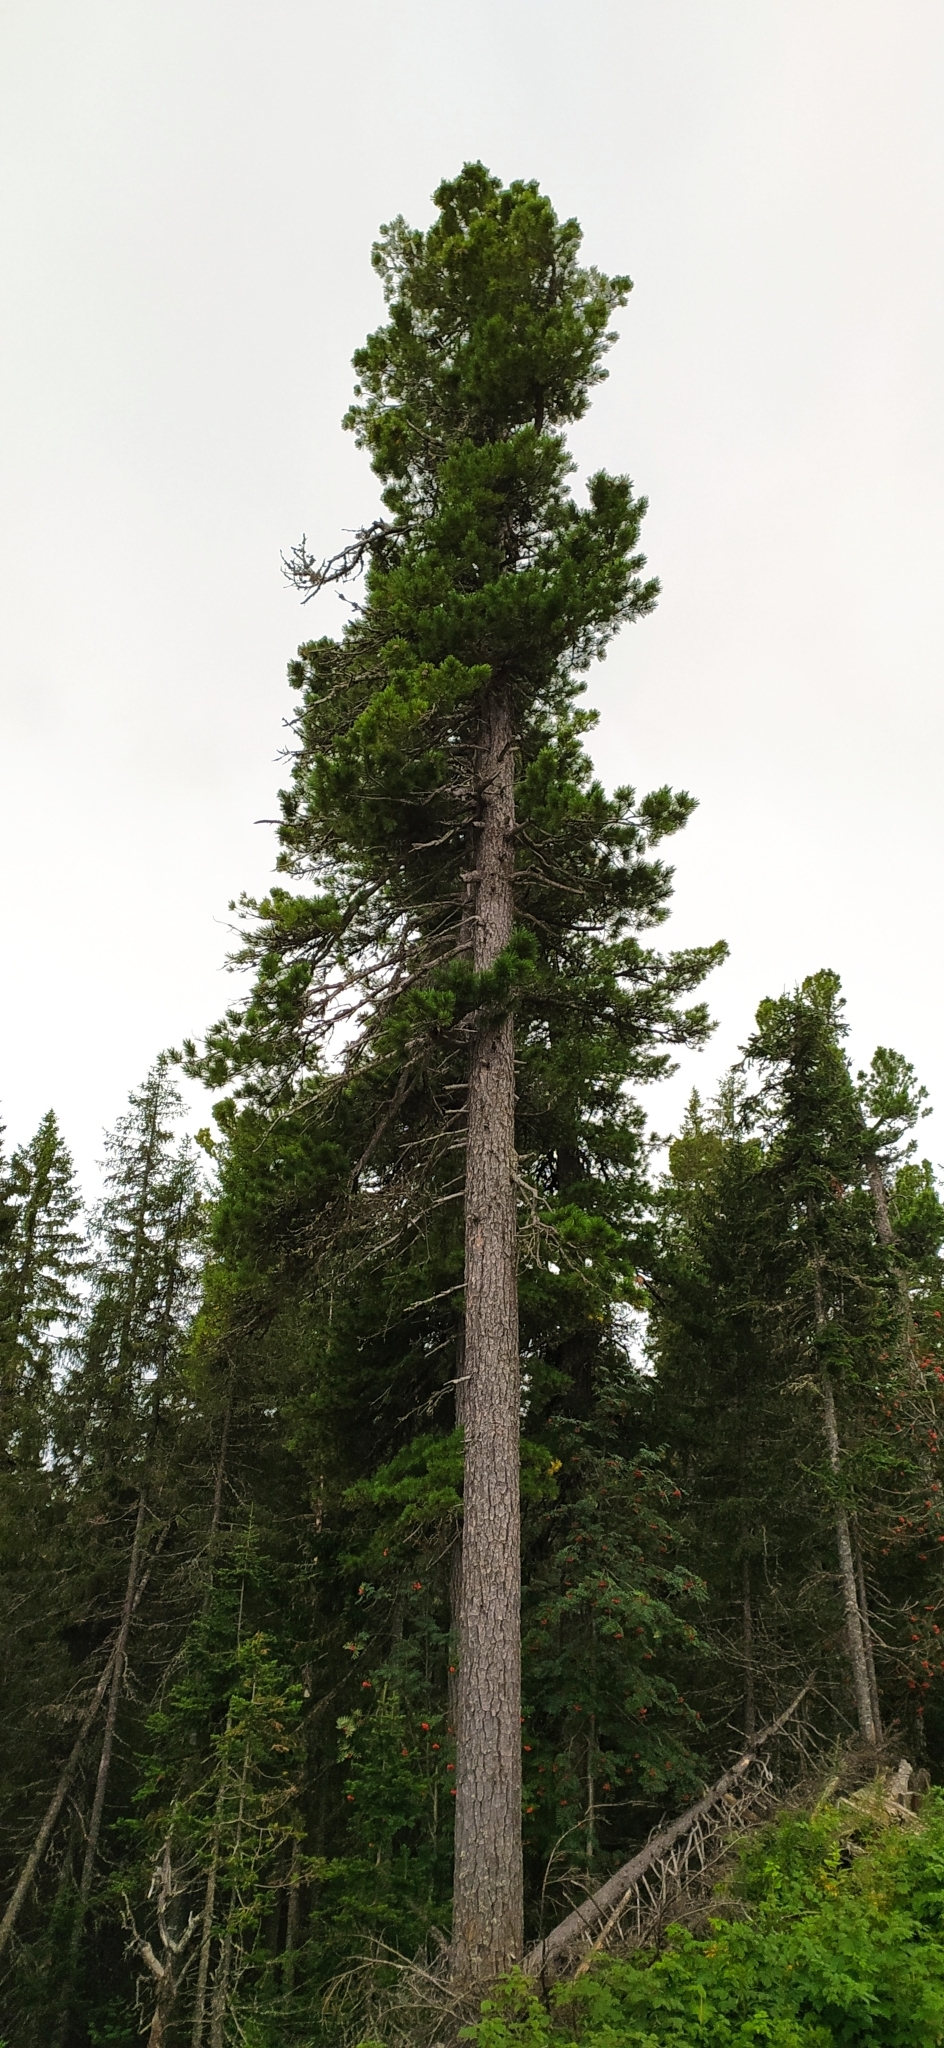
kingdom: Plantae
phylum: Tracheophyta
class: Pinopsida
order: Pinales
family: Pinaceae
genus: Pinus
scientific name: Pinus sibirica
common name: Siberian pine
